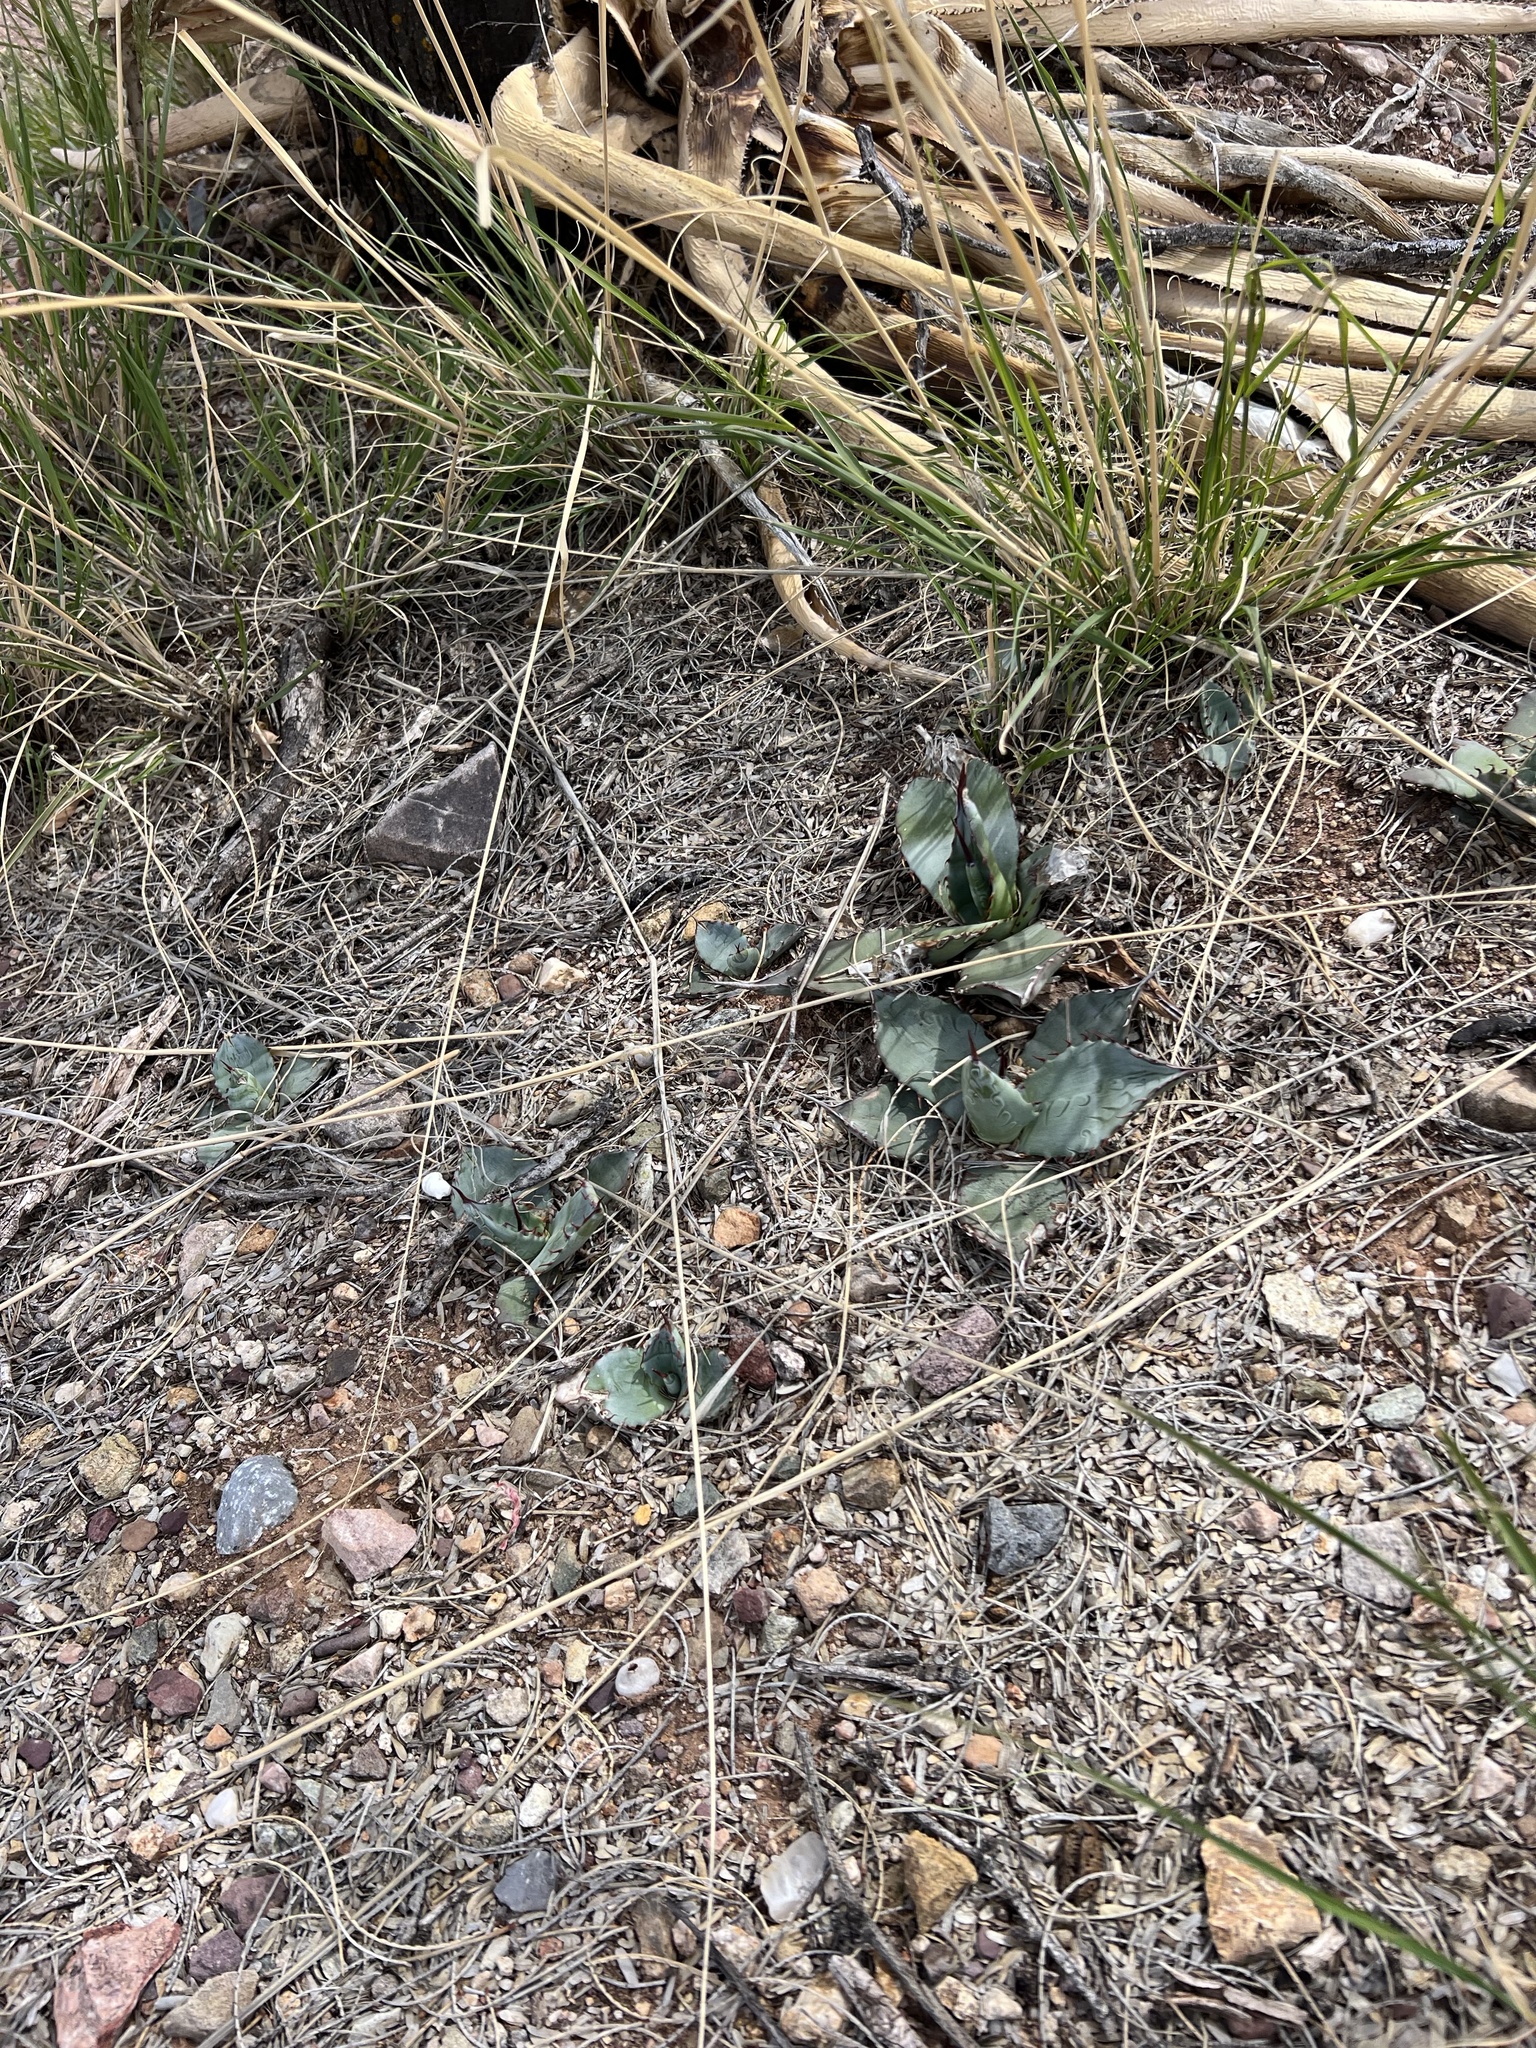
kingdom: Plantae
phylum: Tracheophyta
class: Liliopsida
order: Asparagales
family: Asparagaceae
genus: Agave
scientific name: Agave palmeri
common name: Palmer agave
